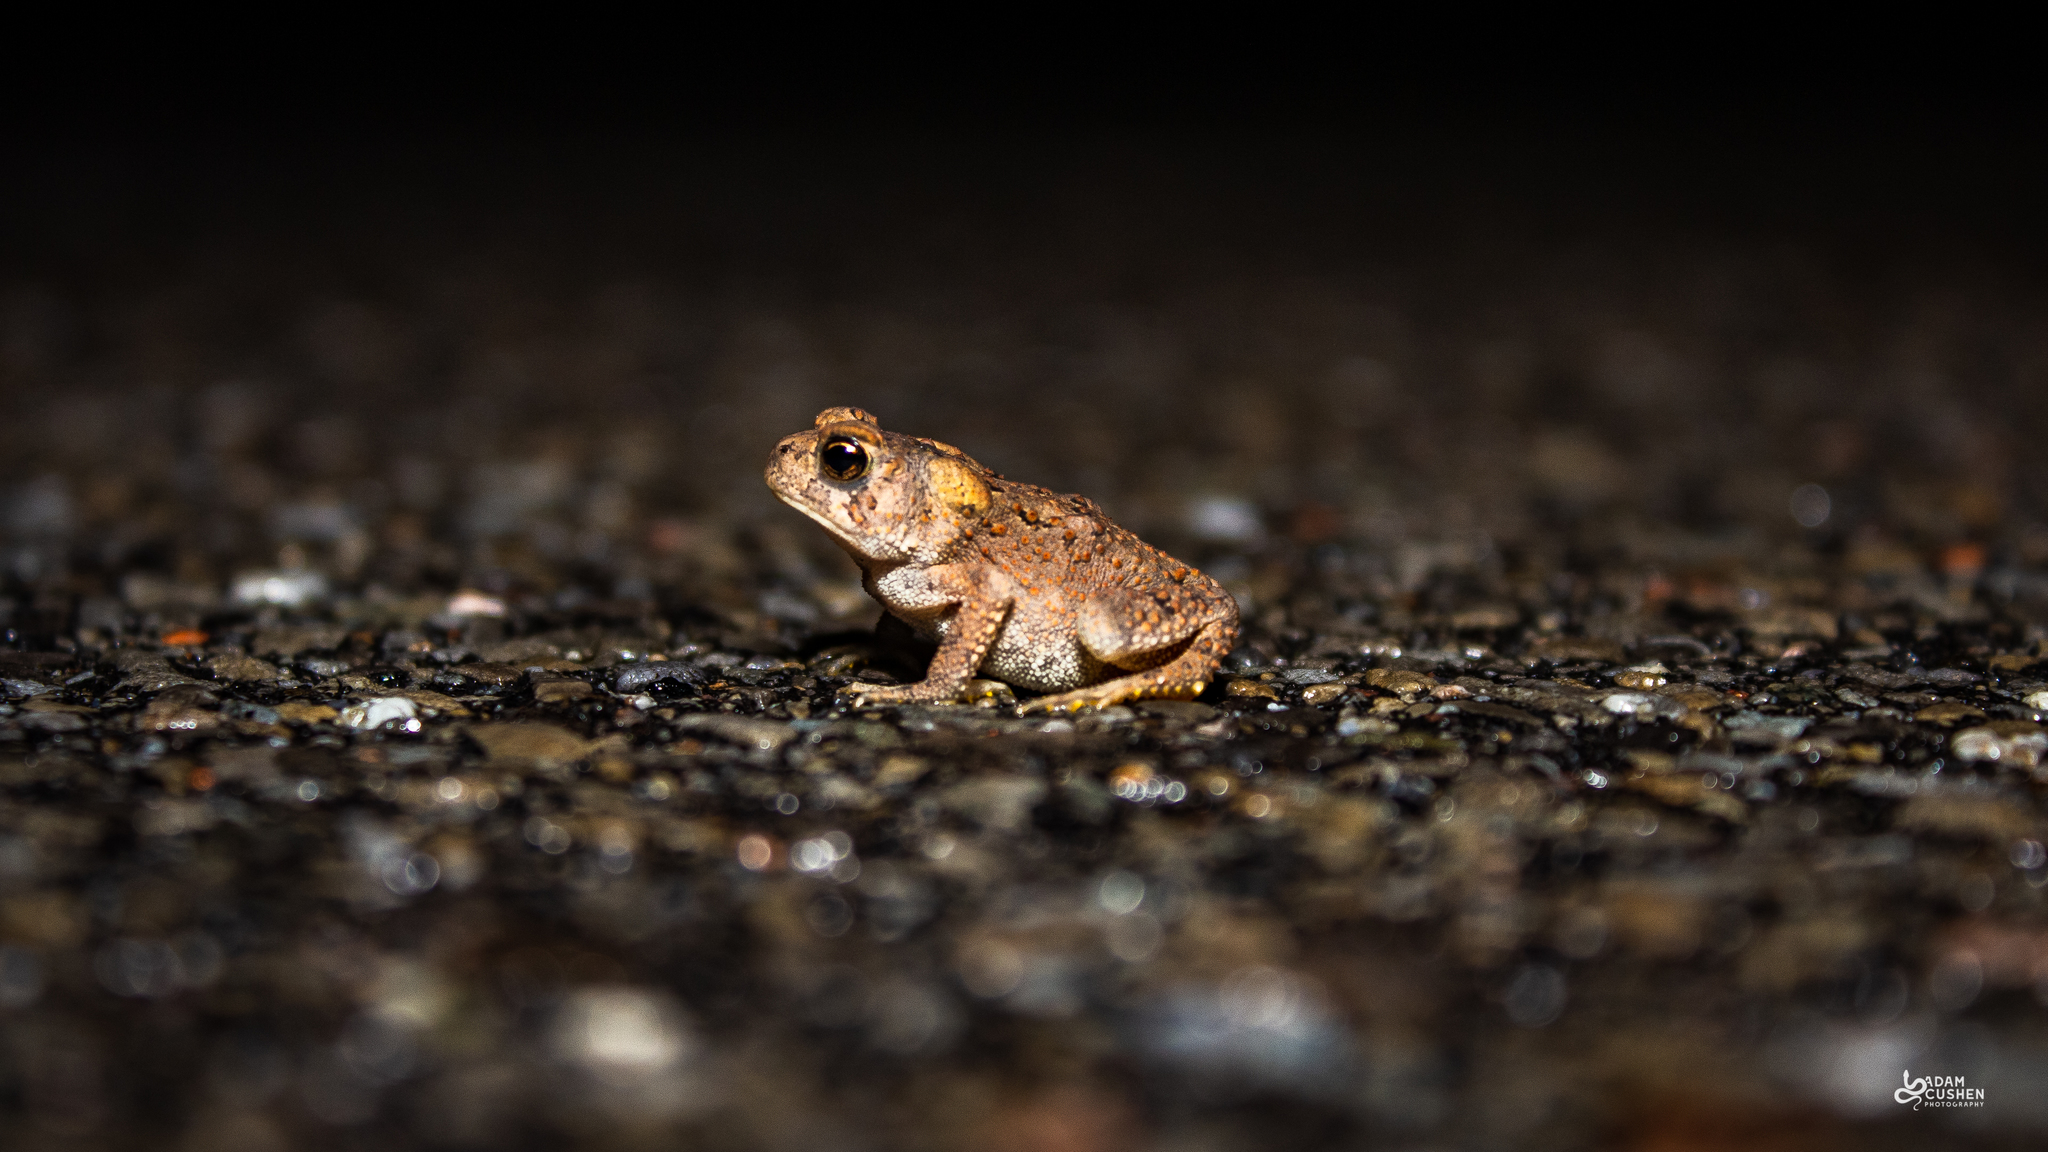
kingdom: Animalia
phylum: Chordata
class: Amphibia
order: Anura
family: Bufonidae
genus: Anaxyrus
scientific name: Anaxyrus americanus
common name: American toad
